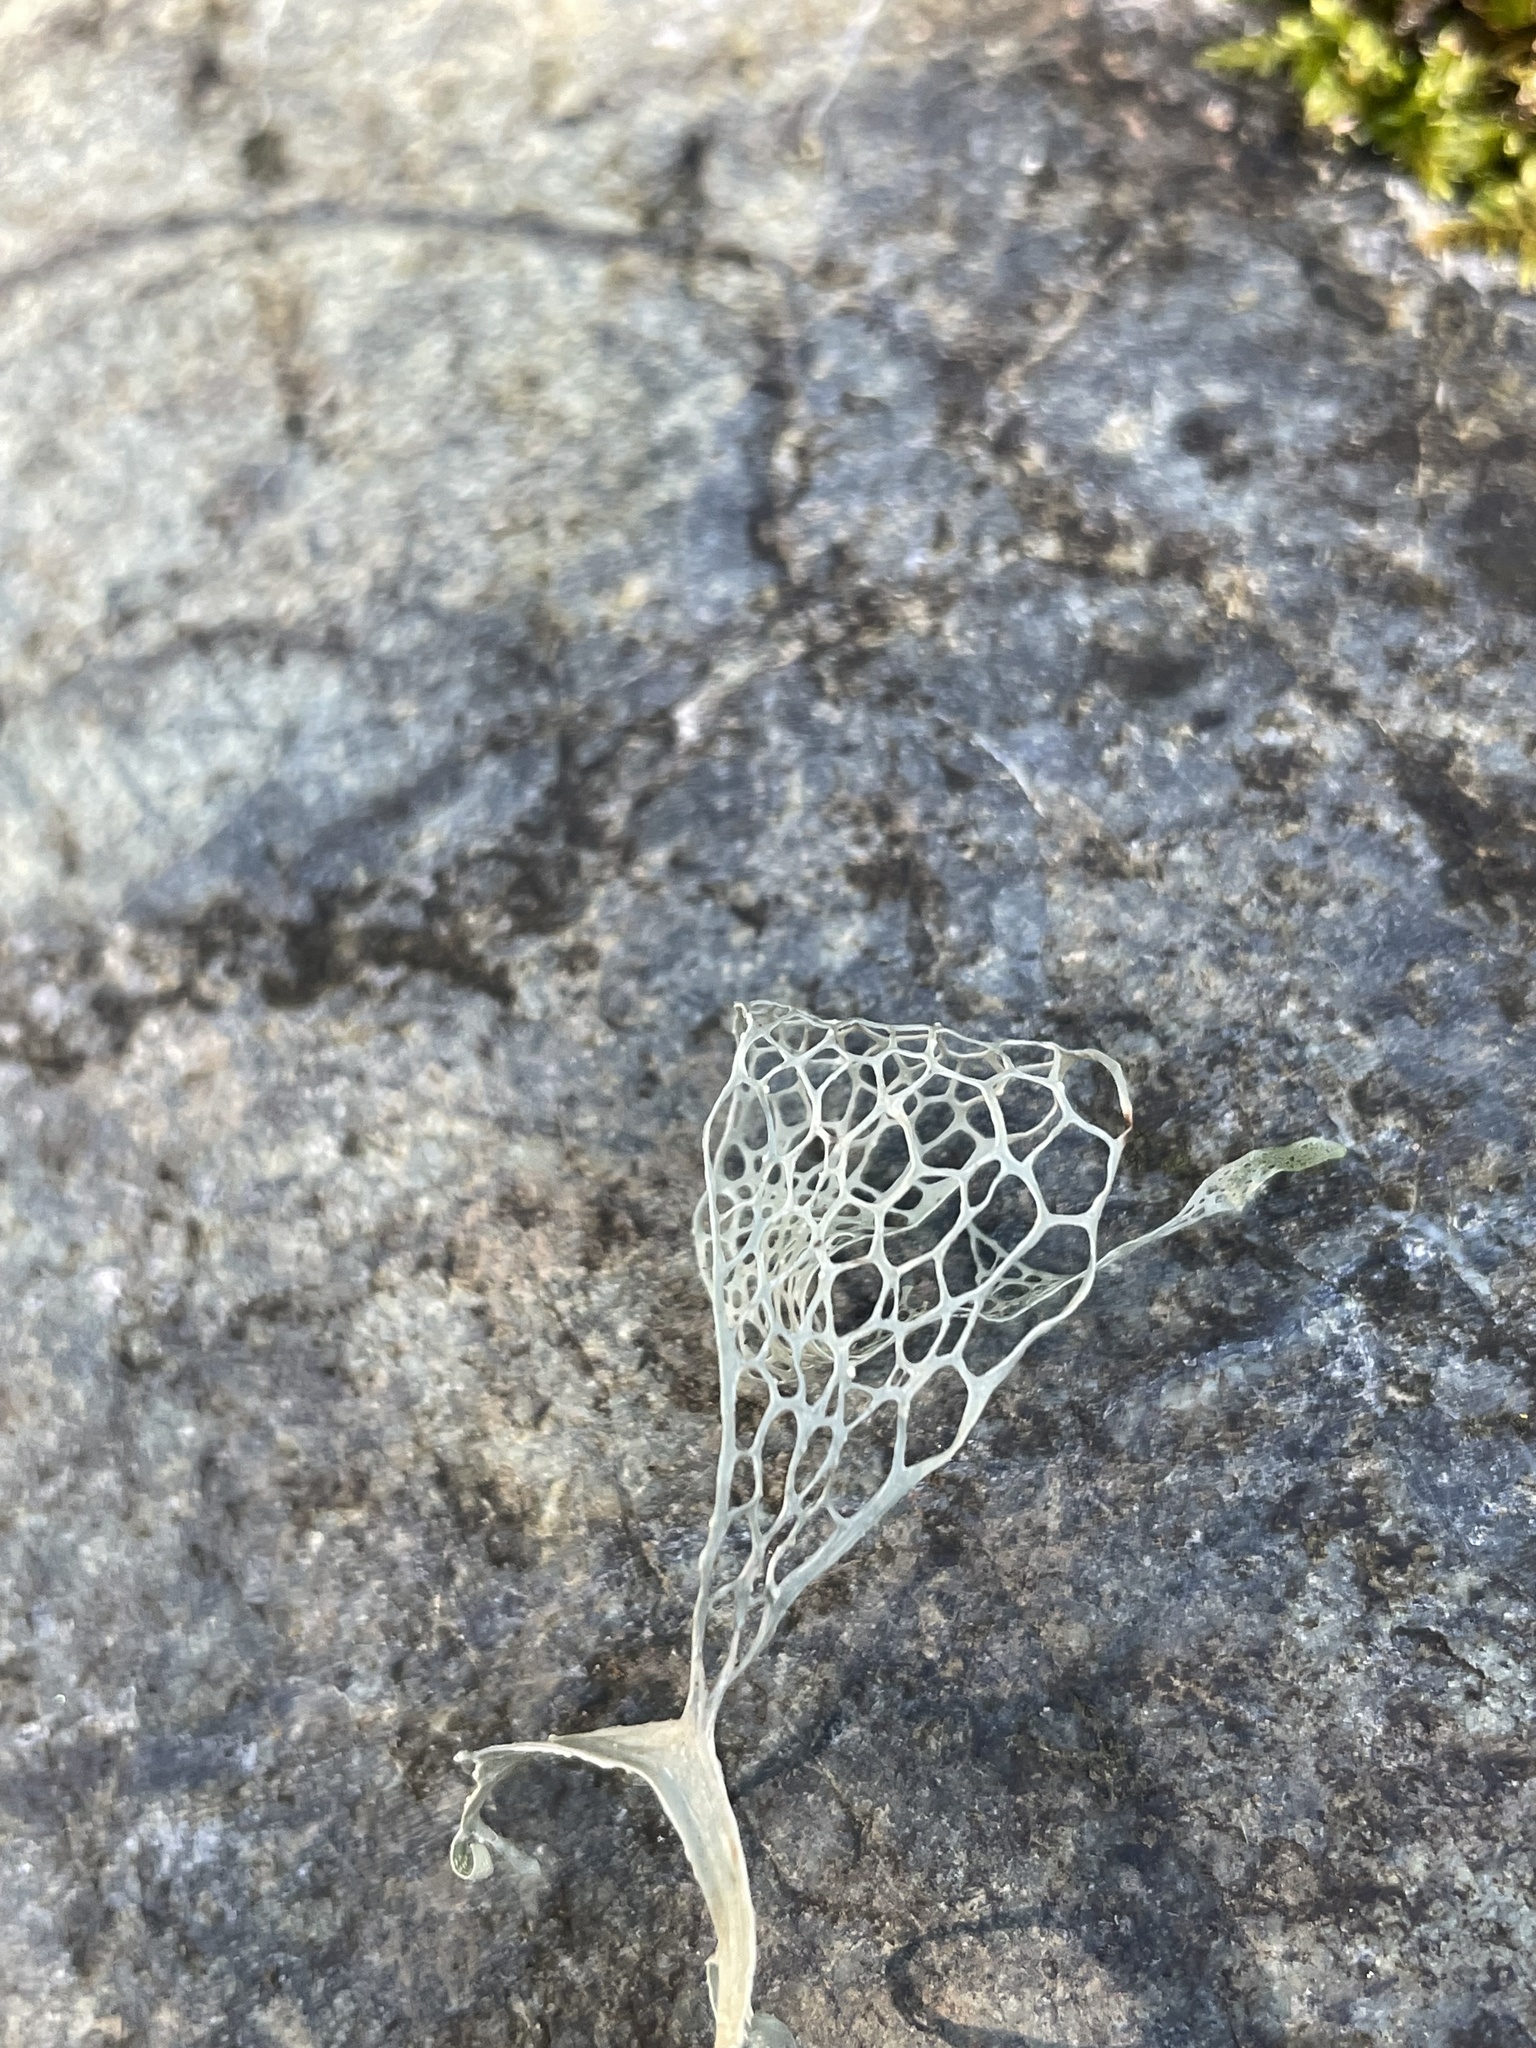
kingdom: Fungi
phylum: Ascomycota
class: Lecanoromycetes
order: Lecanorales
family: Ramalinaceae
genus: Ramalina
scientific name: Ramalina menziesii
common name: Lace lichen
